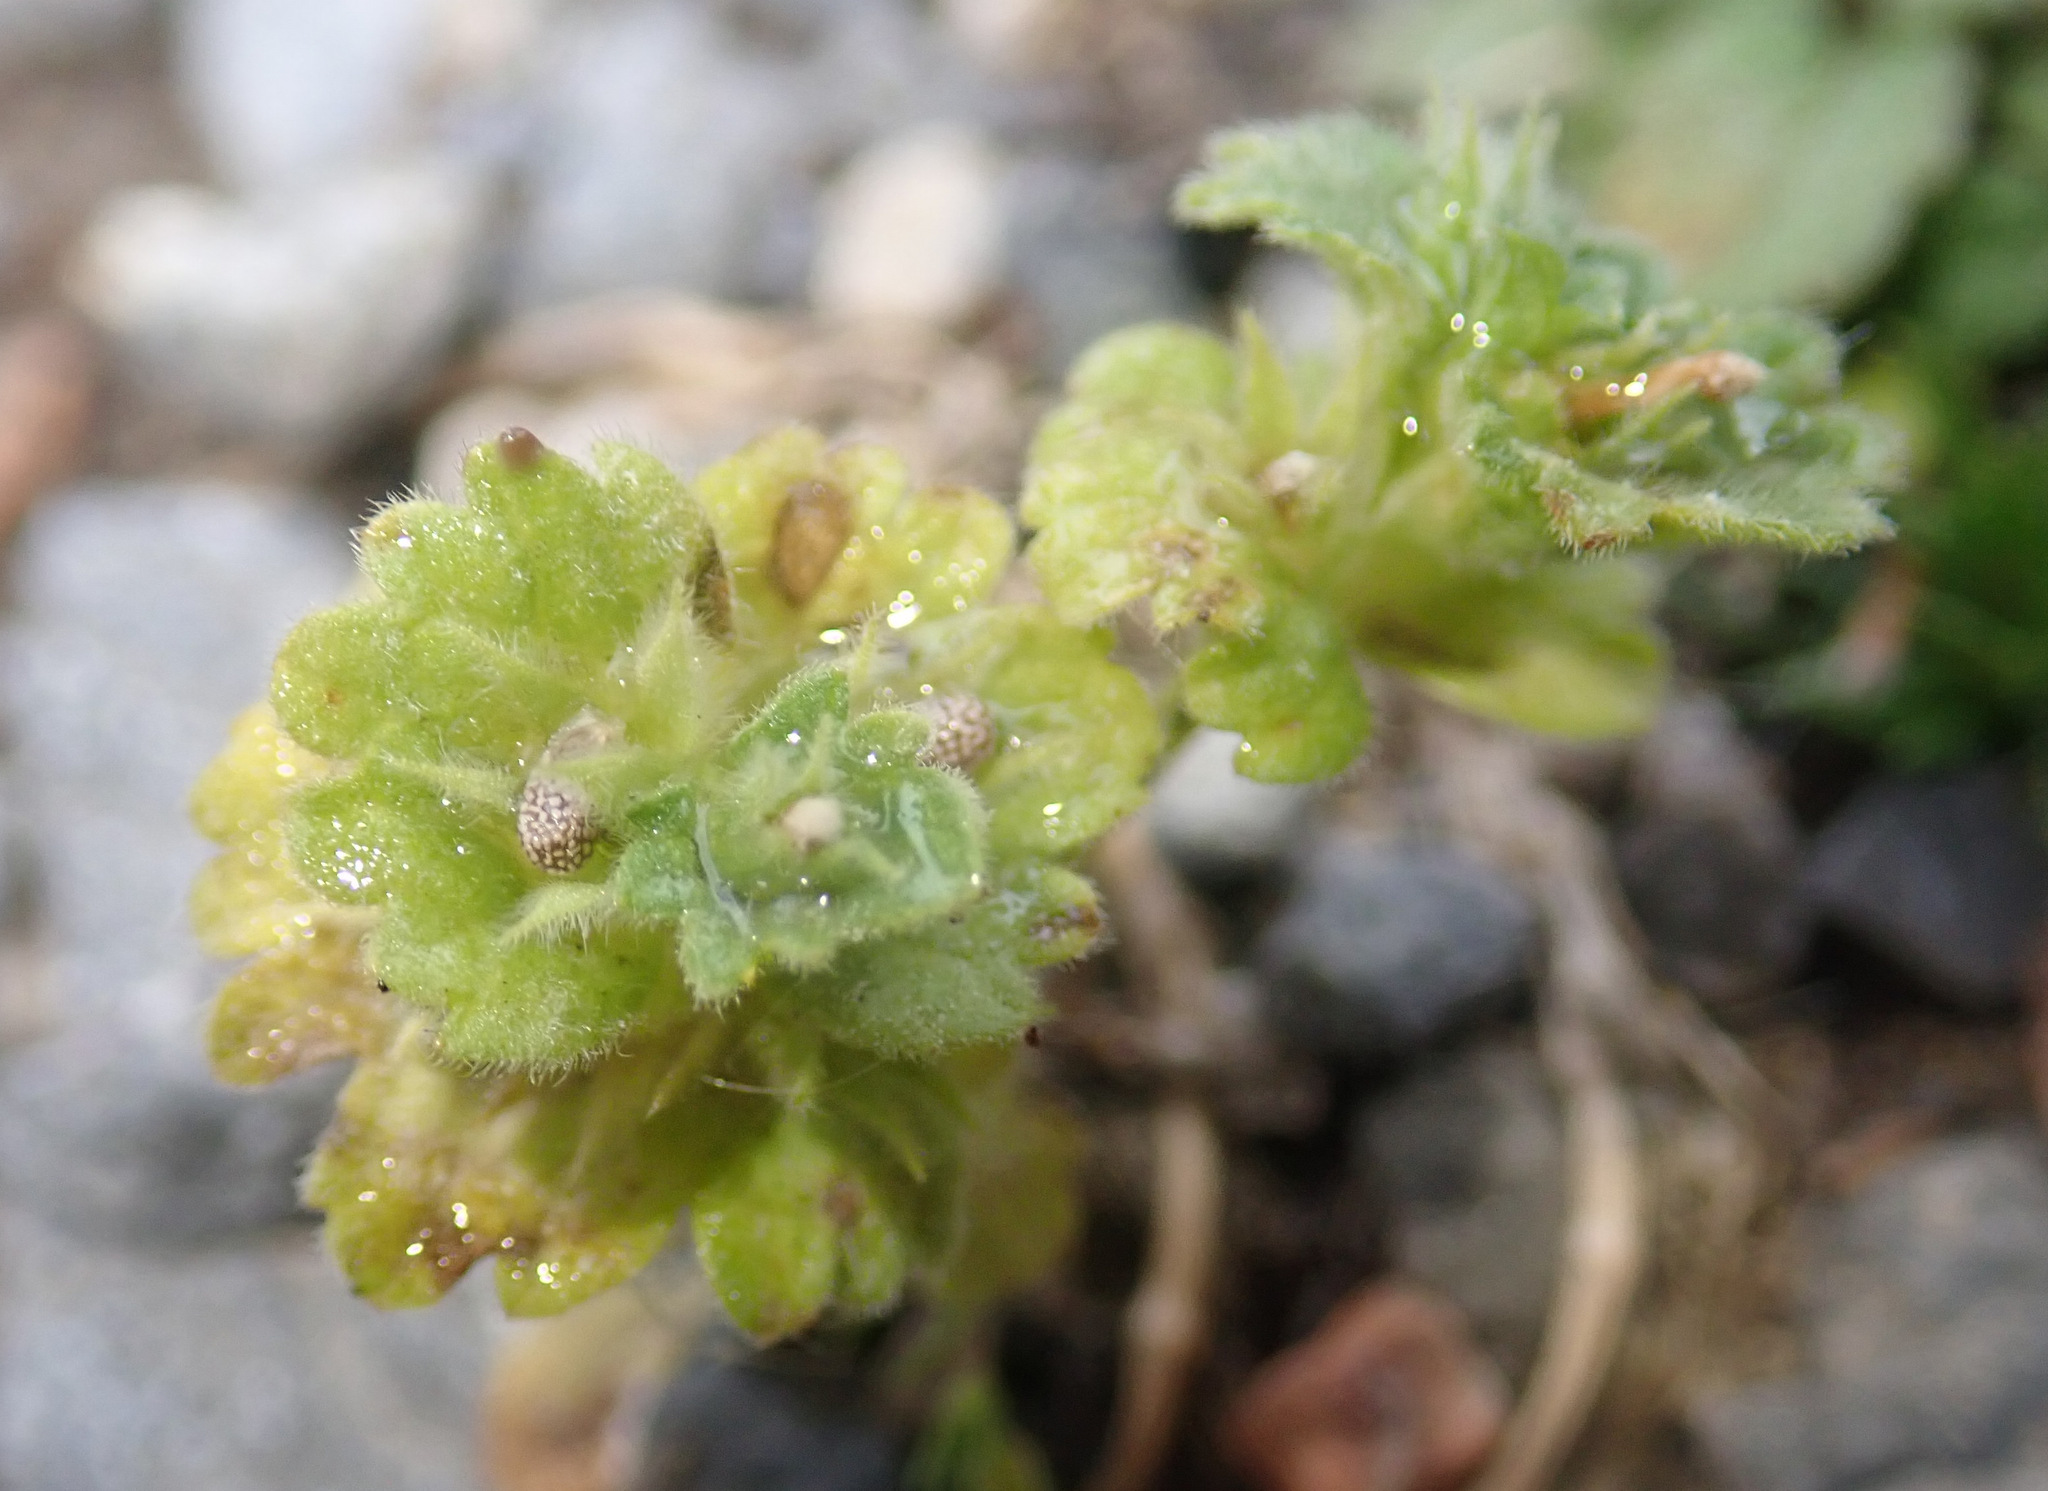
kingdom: Plantae
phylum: Tracheophyta
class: Magnoliopsida
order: Lamiales
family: Lamiaceae
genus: Lamium
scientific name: Lamium amplexicaule
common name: Henbit dead-nettle
